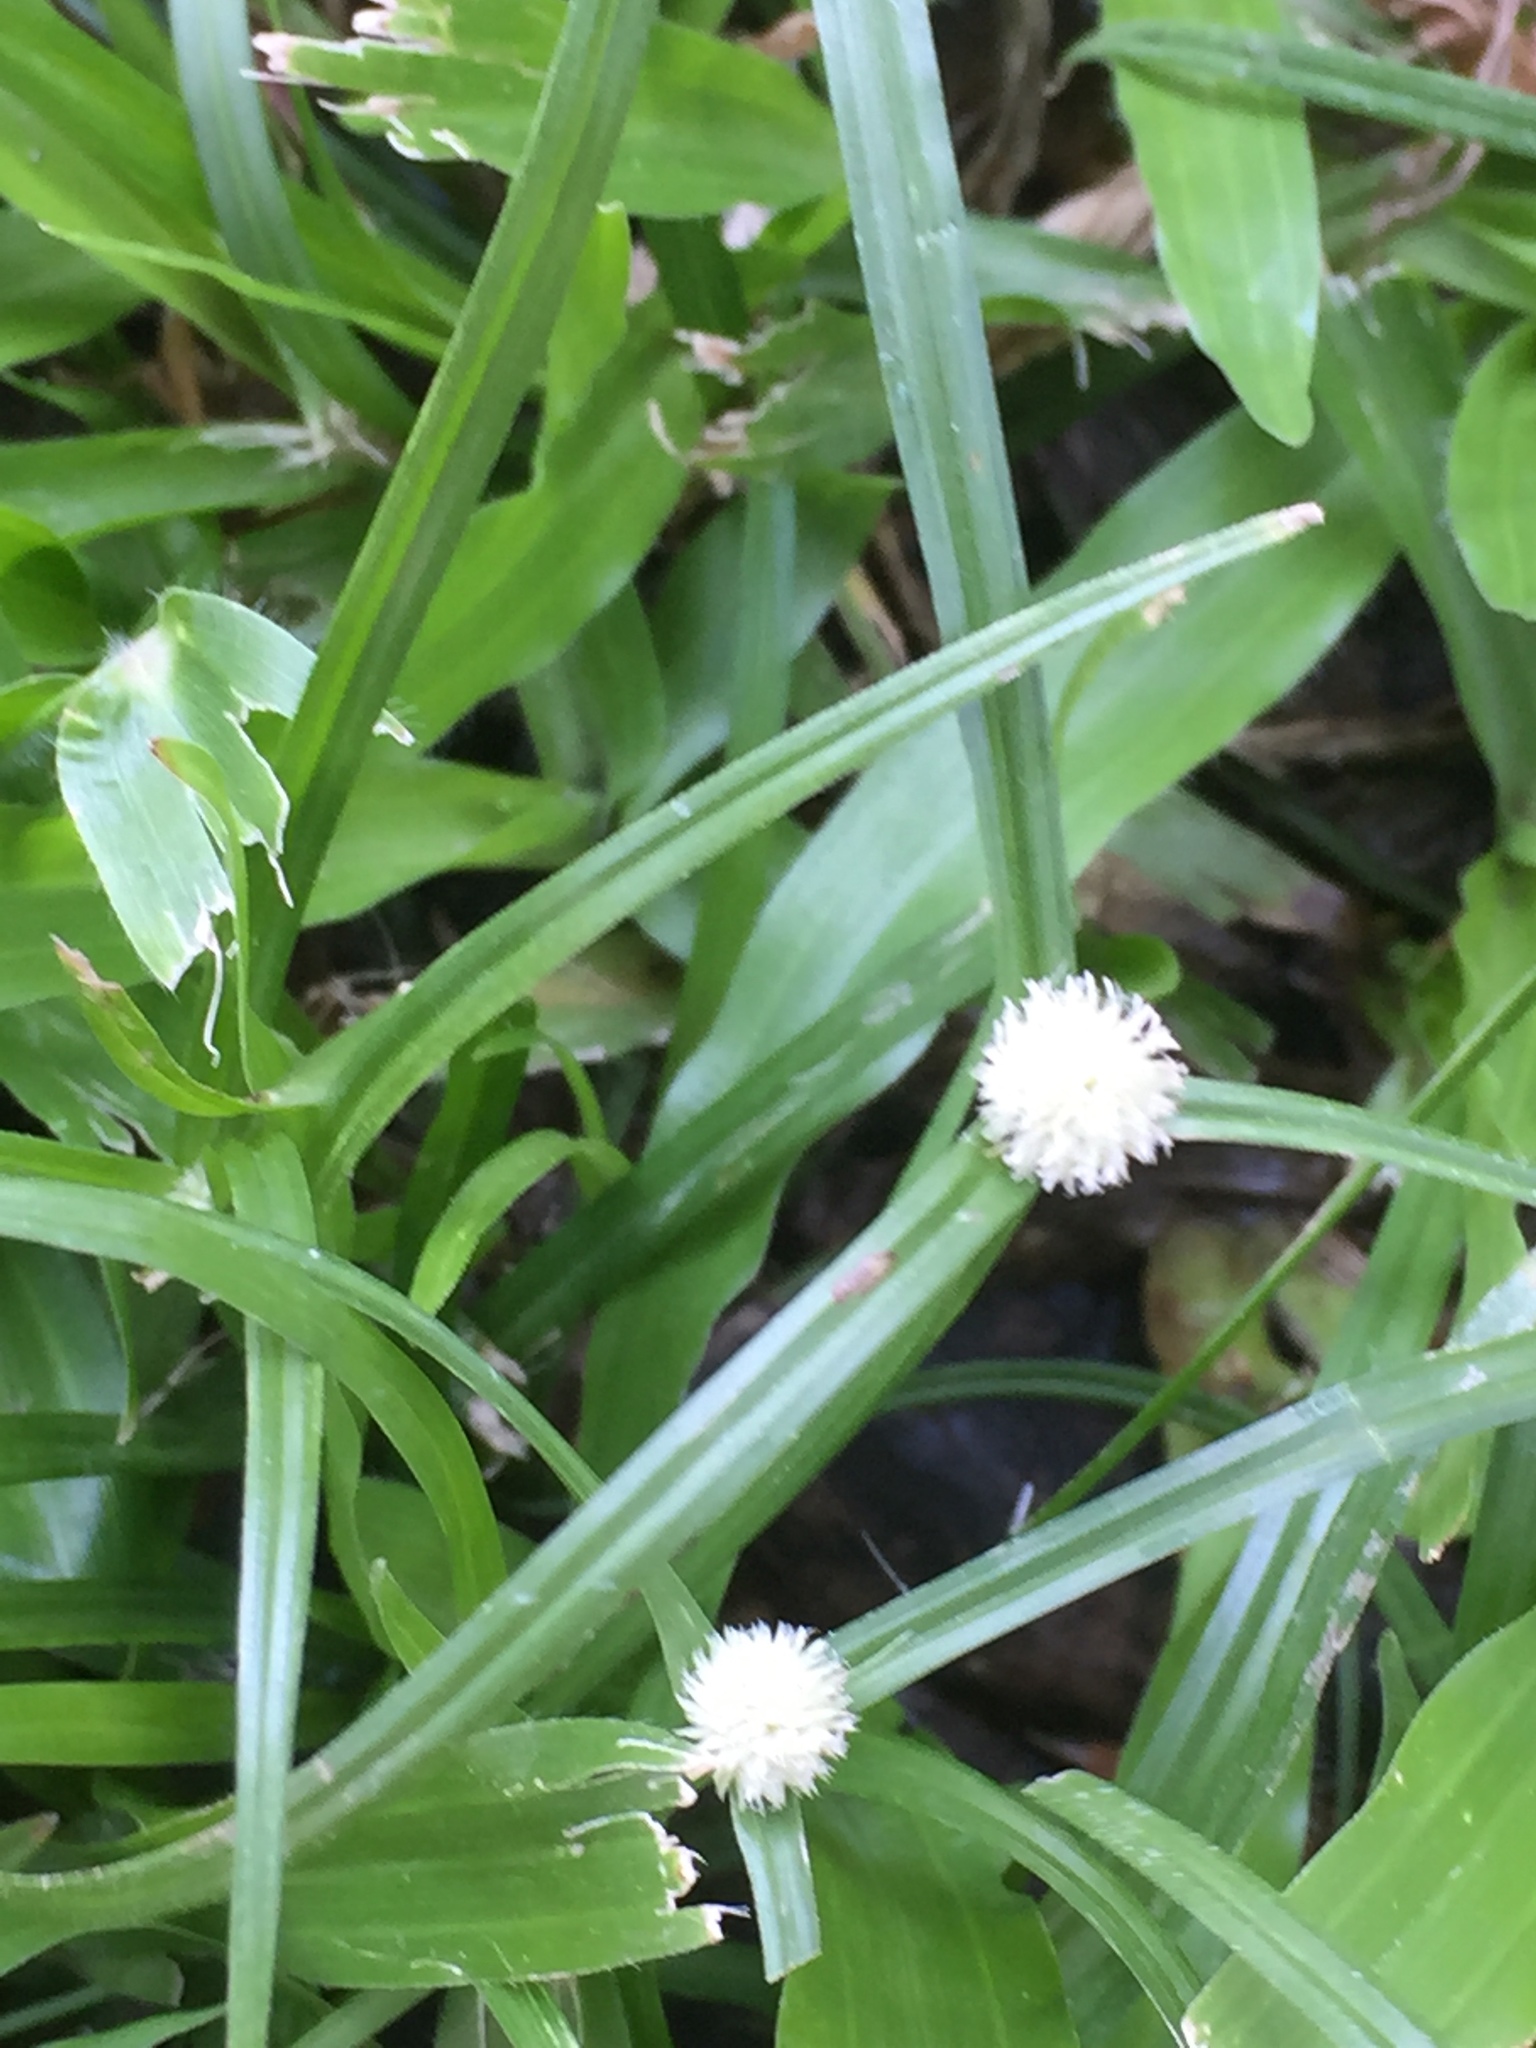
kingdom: Plantae
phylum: Tracheophyta
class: Liliopsida
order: Poales
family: Cyperaceae
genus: Cyperus
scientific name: Cyperus mindorensis
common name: Flatsedge
